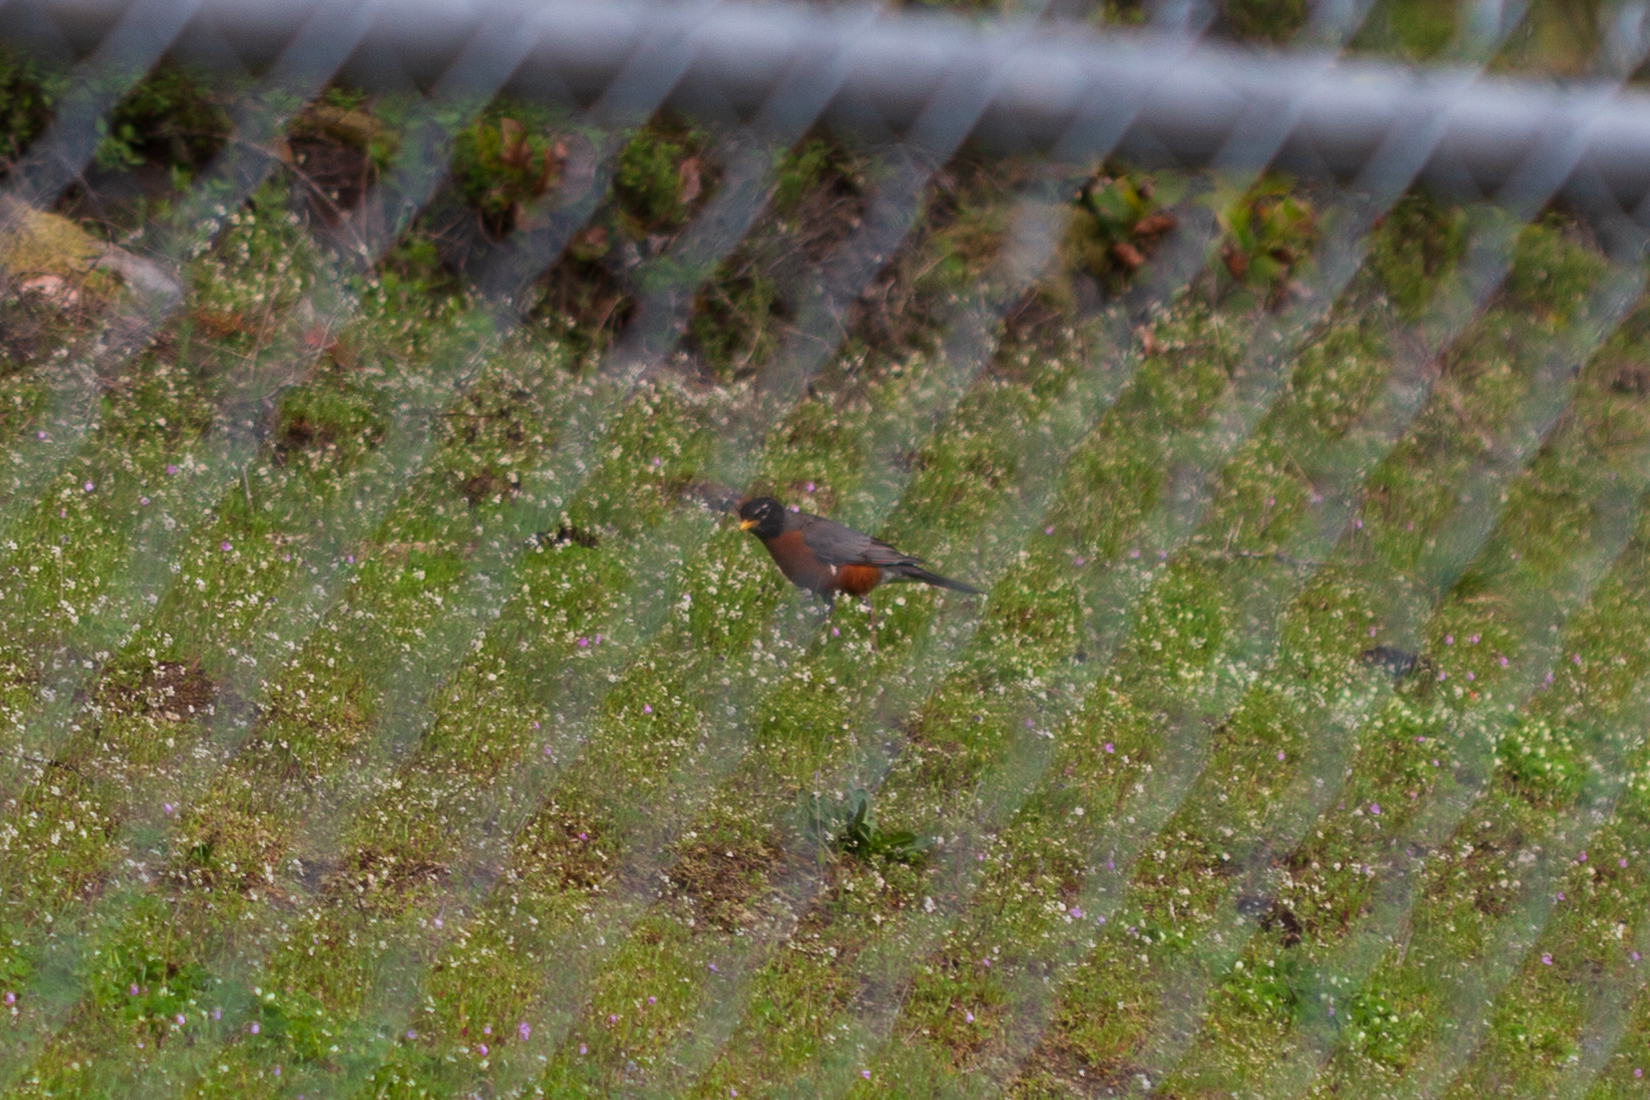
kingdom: Animalia
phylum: Chordata
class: Aves
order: Passeriformes
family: Turdidae
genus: Turdus
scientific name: Turdus migratorius
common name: American robin
